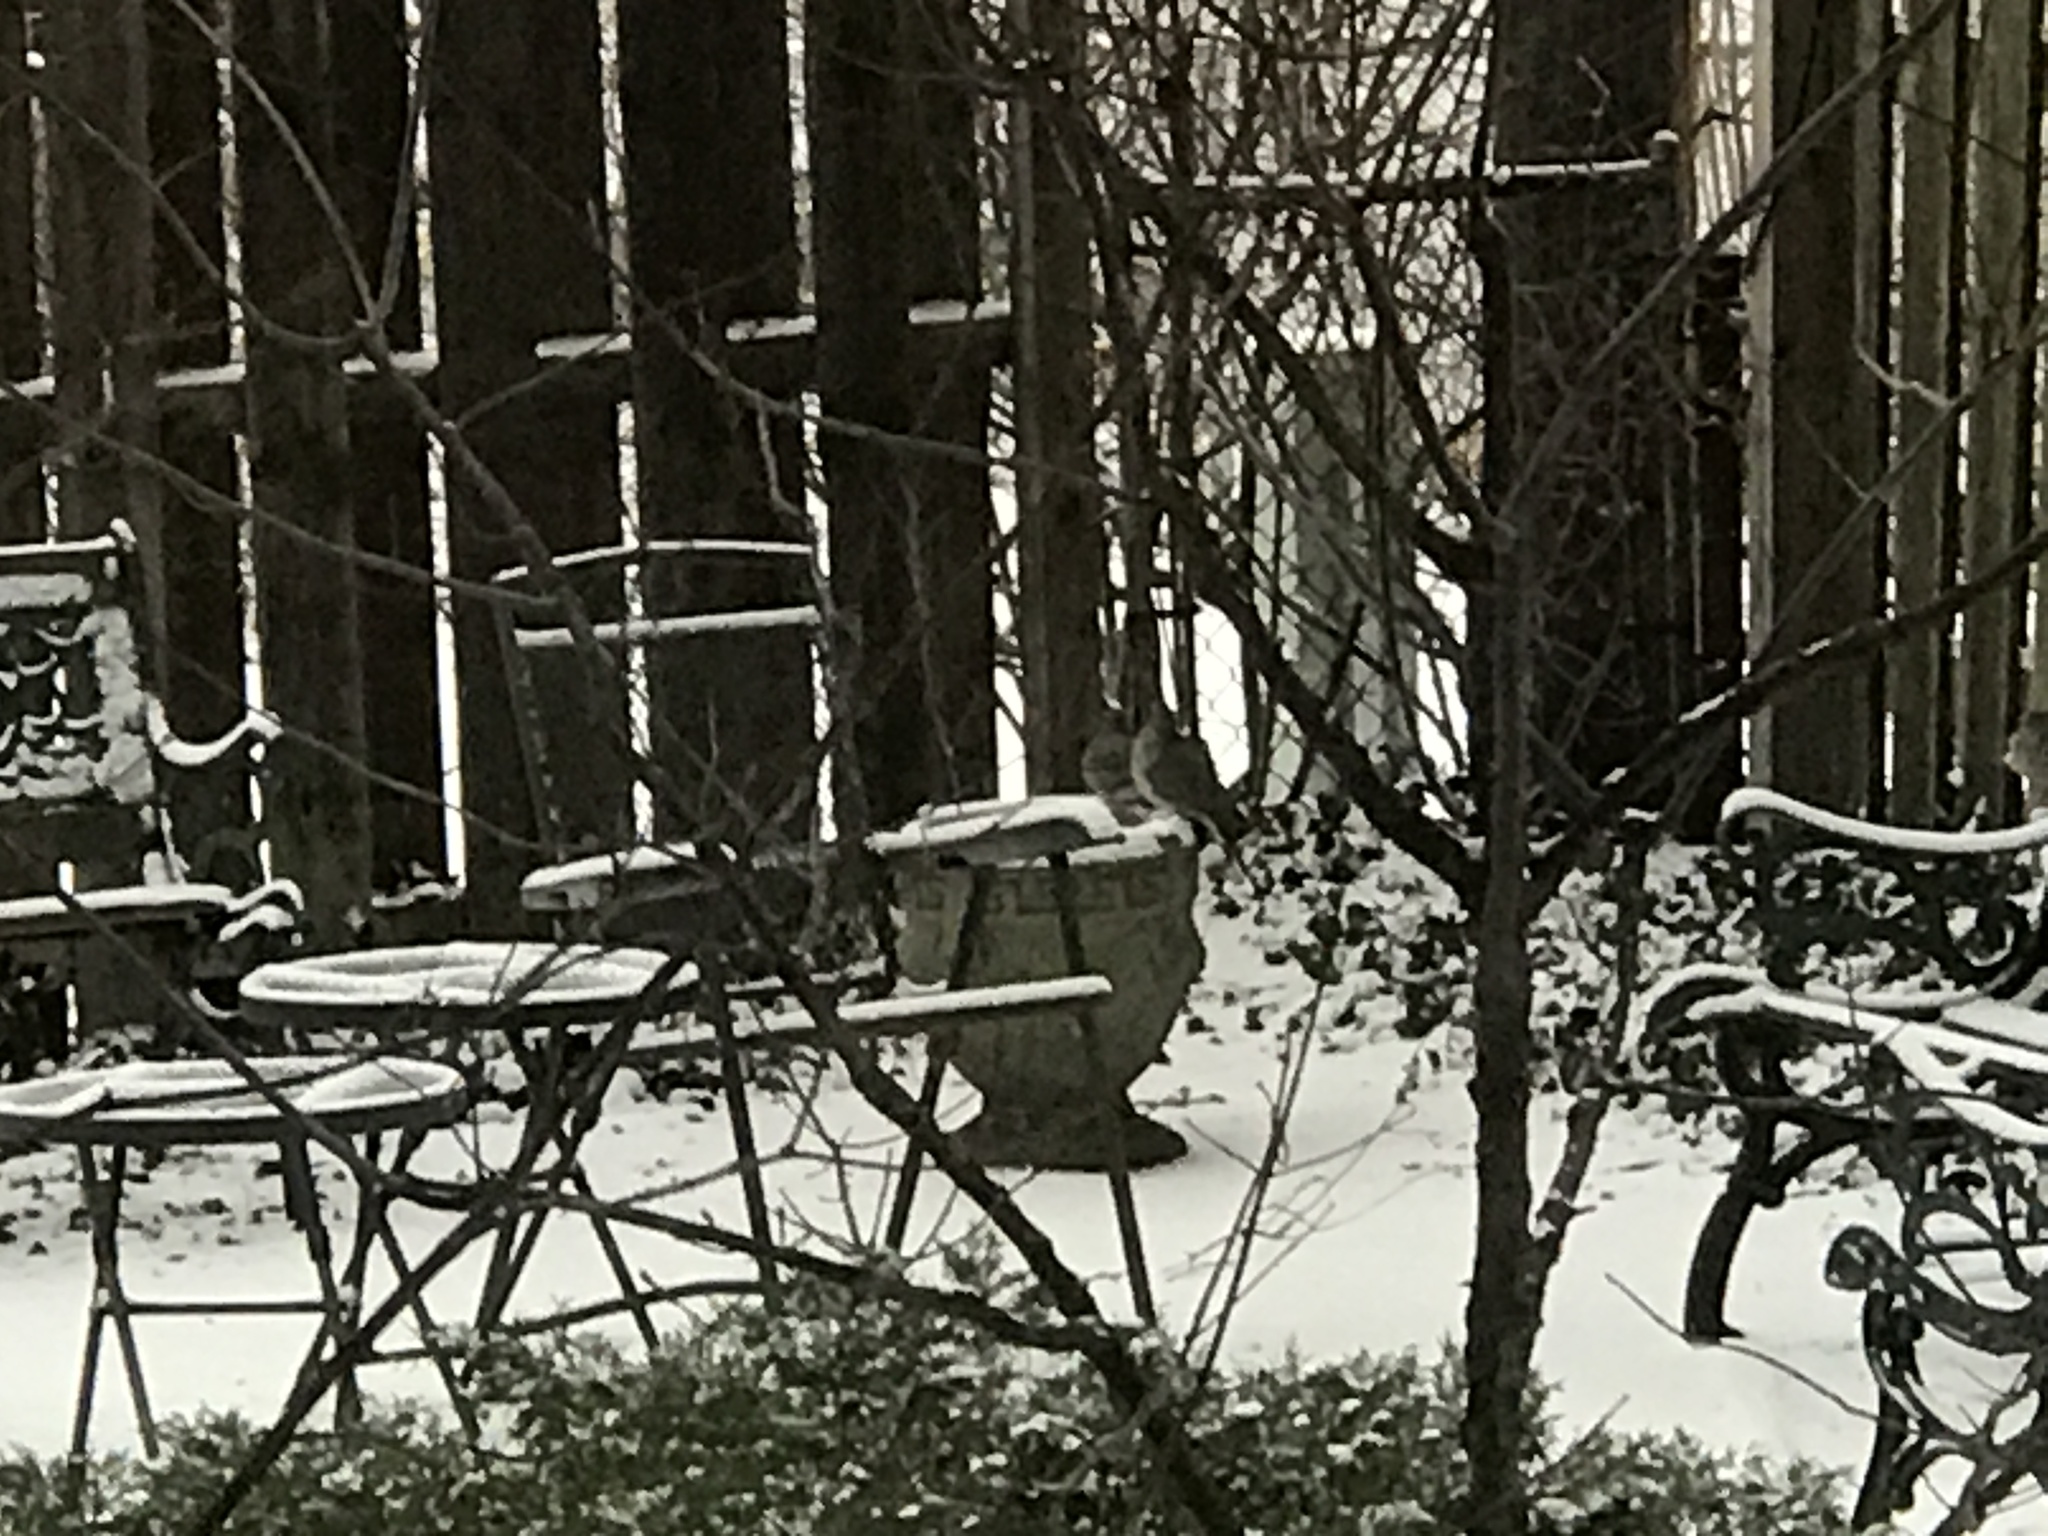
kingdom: Animalia
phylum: Chordata
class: Aves
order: Columbiformes
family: Columbidae
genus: Zenaida
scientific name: Zenaida macroura
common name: Mourning dove
